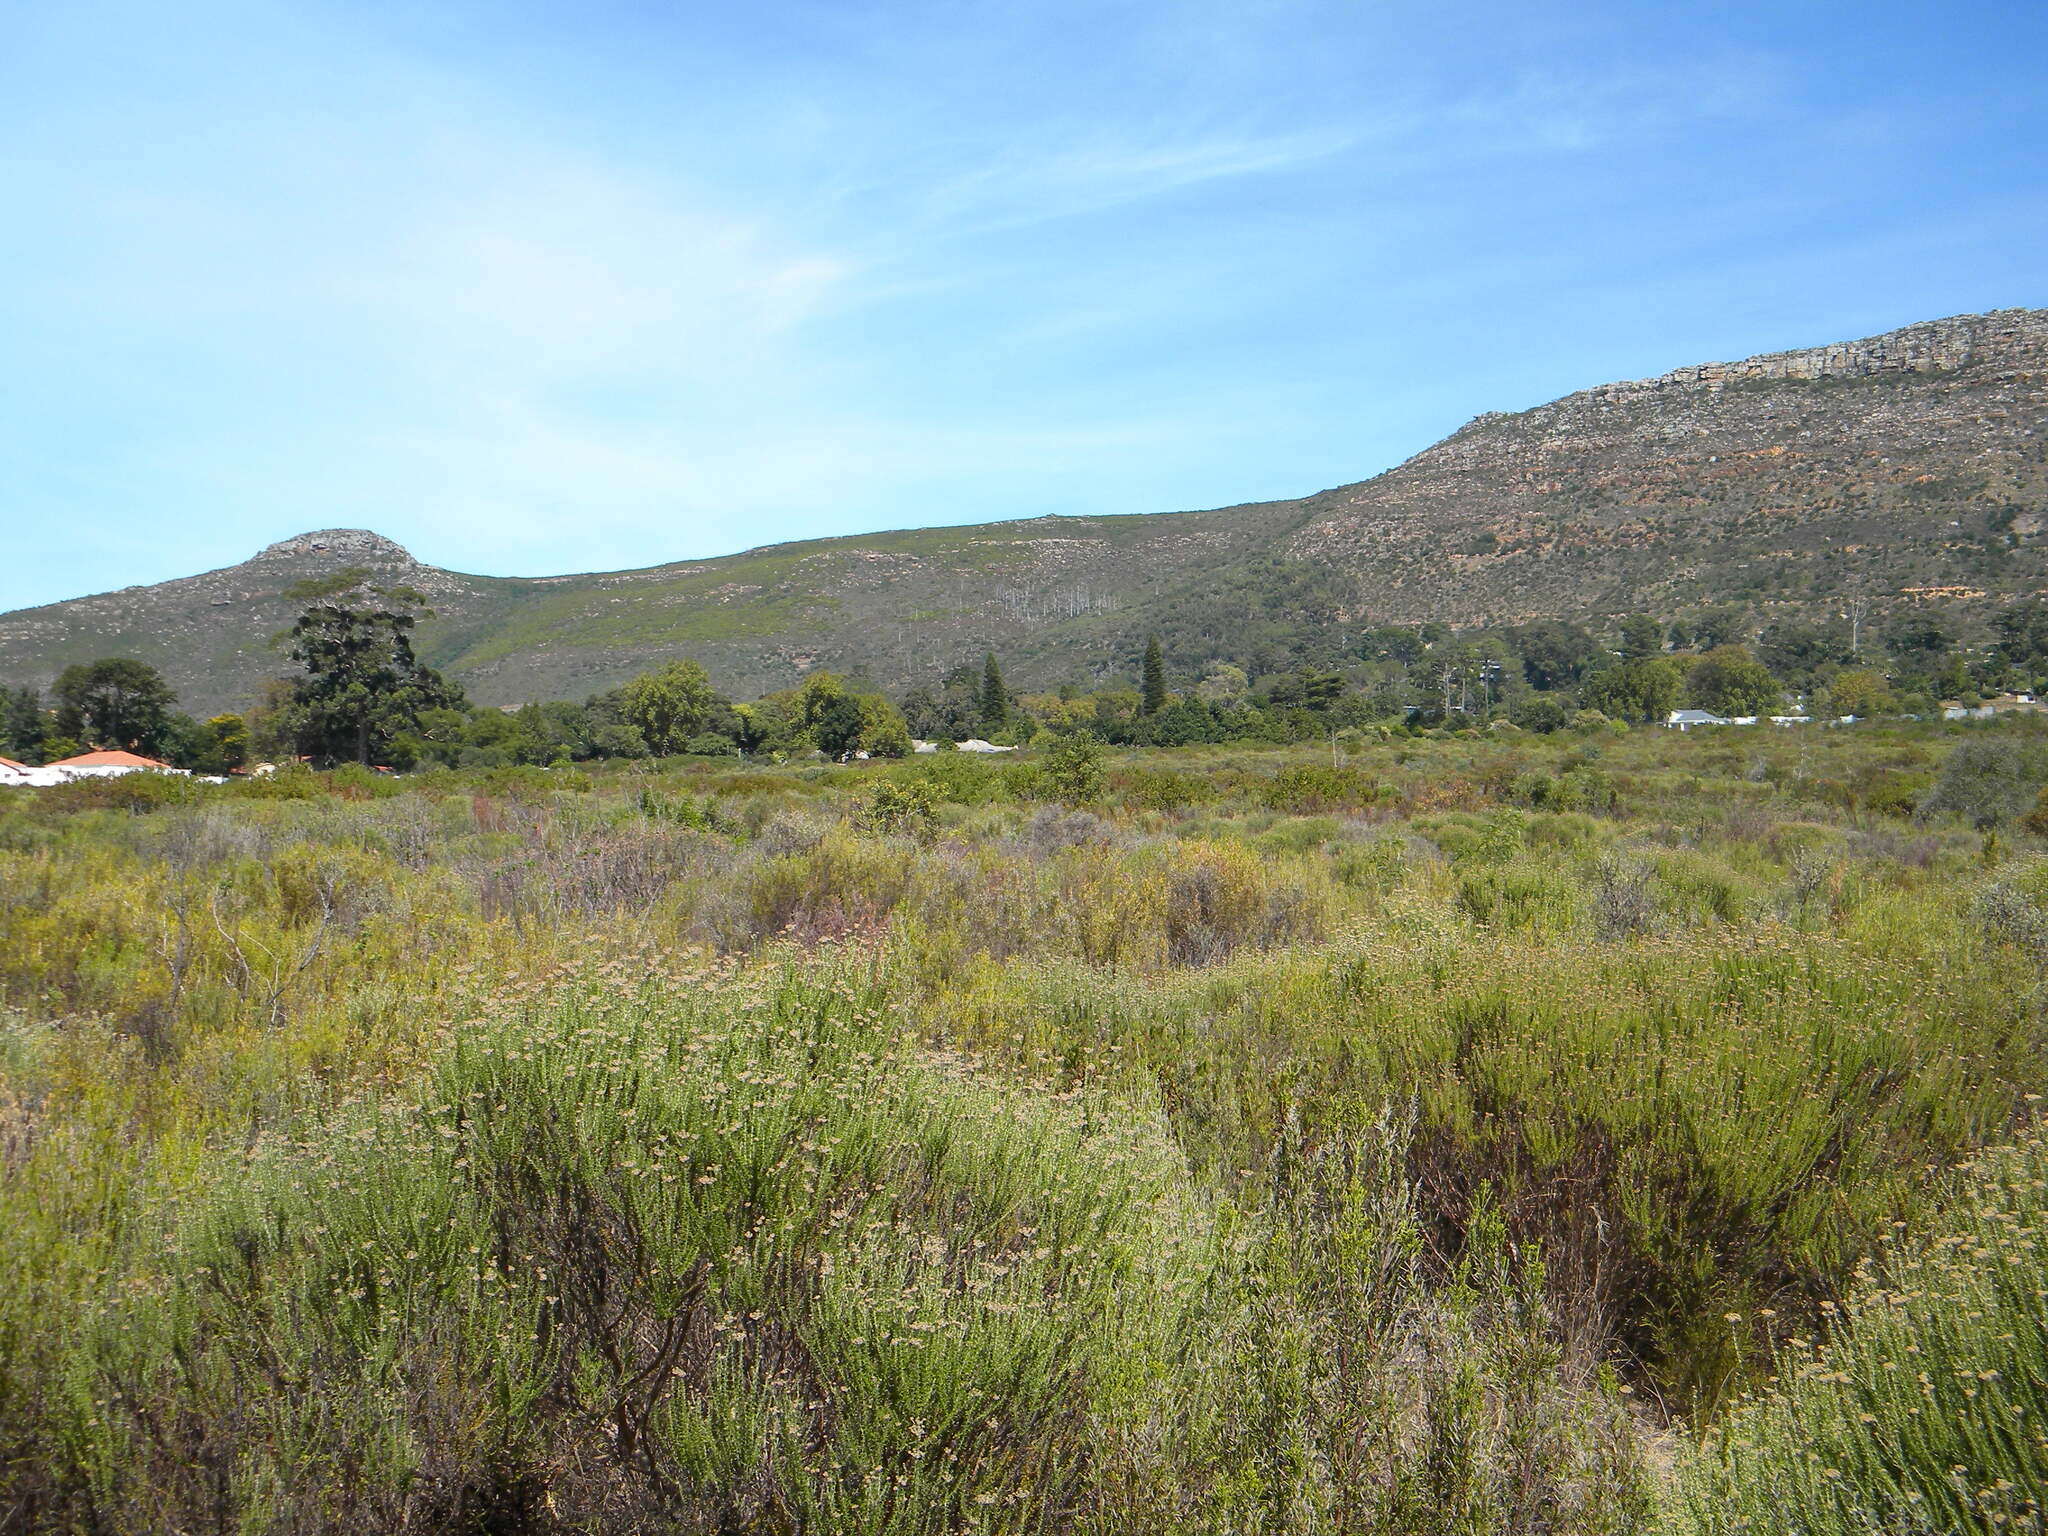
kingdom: Plantae
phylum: Tracheophyta
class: Magnoliopsida
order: Asterales
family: Asteraceae
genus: Metalasia
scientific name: Metalasia densa
